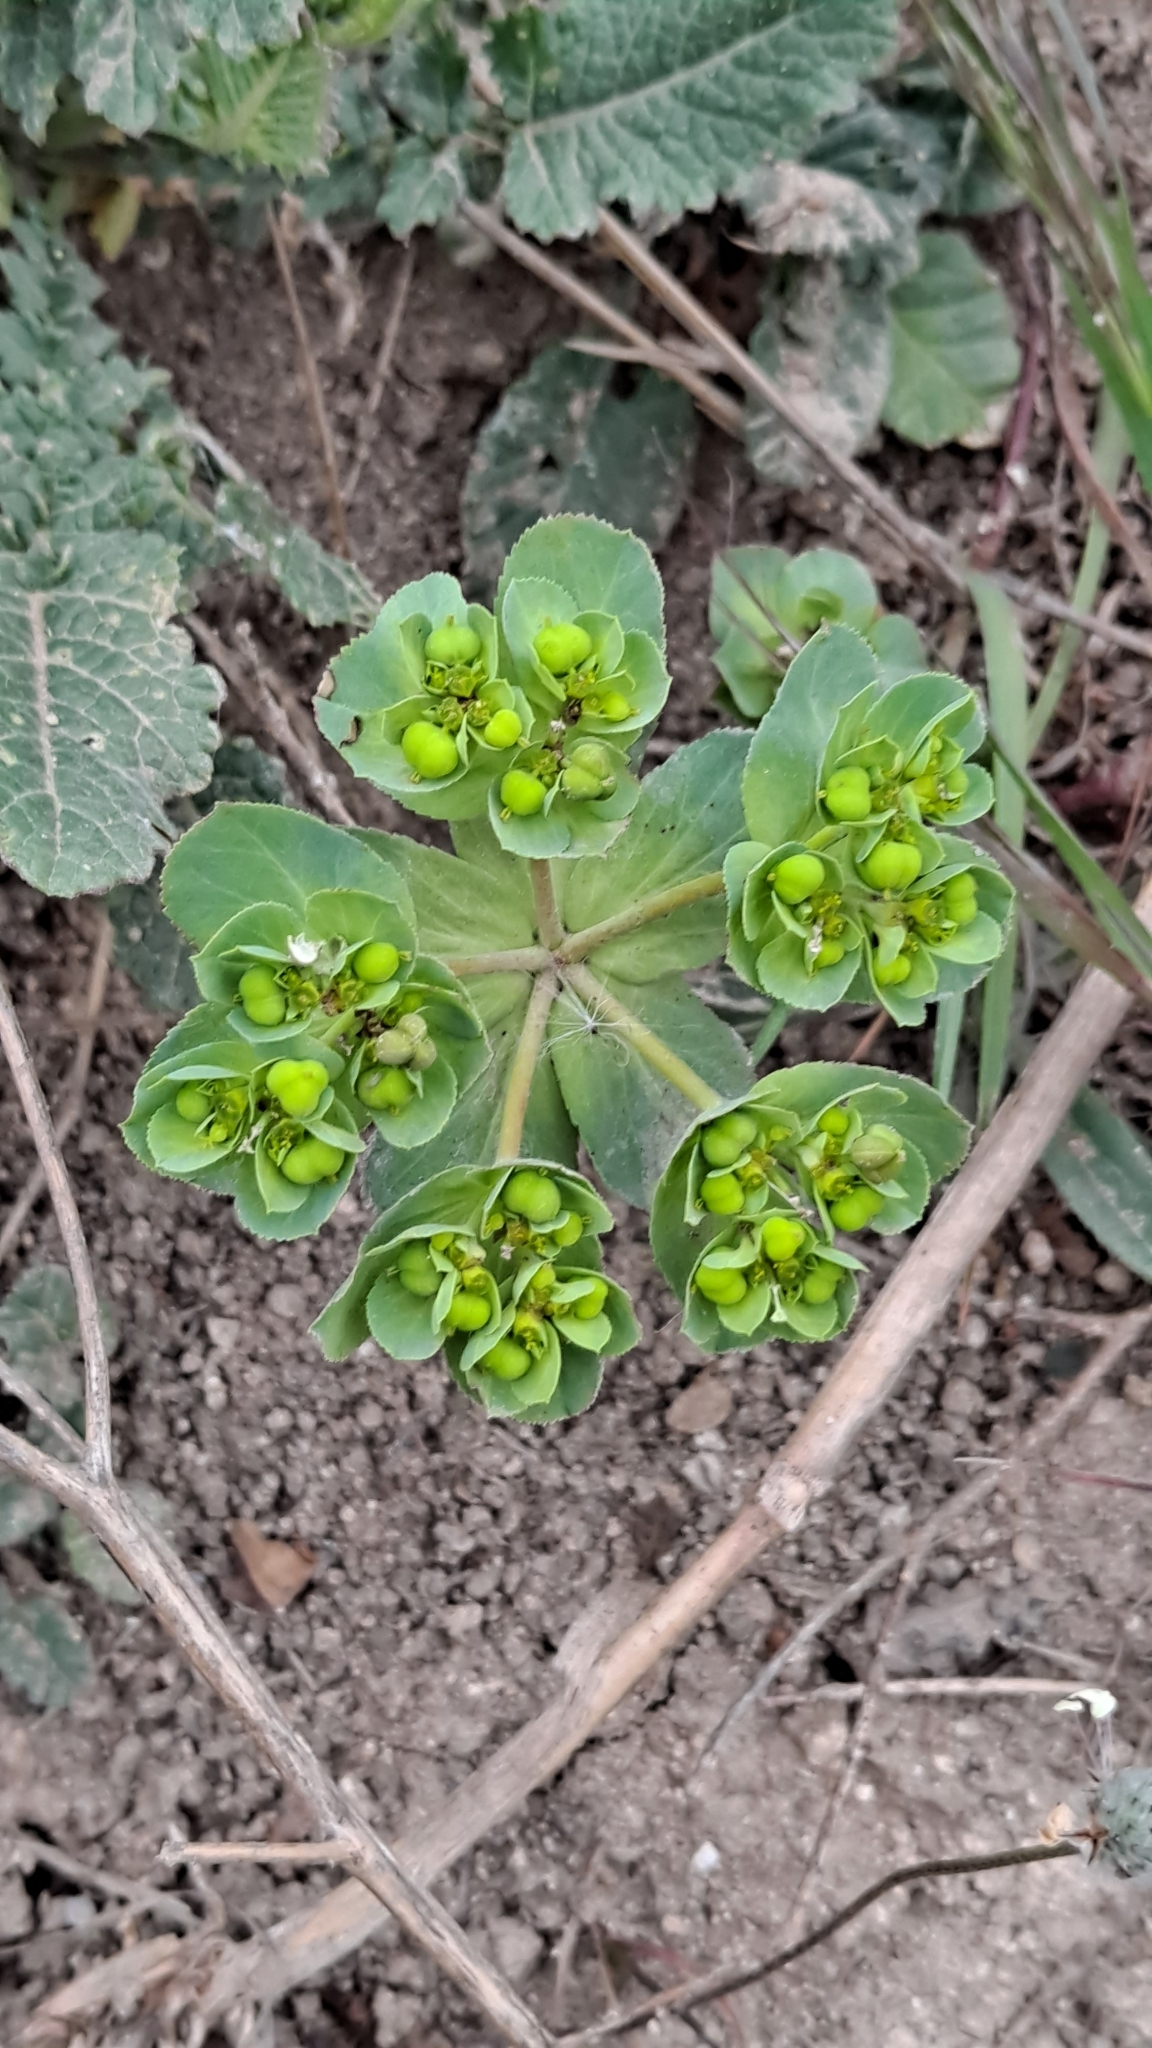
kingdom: Plantae
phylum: Tracheophyta
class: Magnoliopsida
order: Malpighiales
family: Euphorbiaceae
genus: Euphorbia
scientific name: Euphorbia helioscopia
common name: Sun spurge
